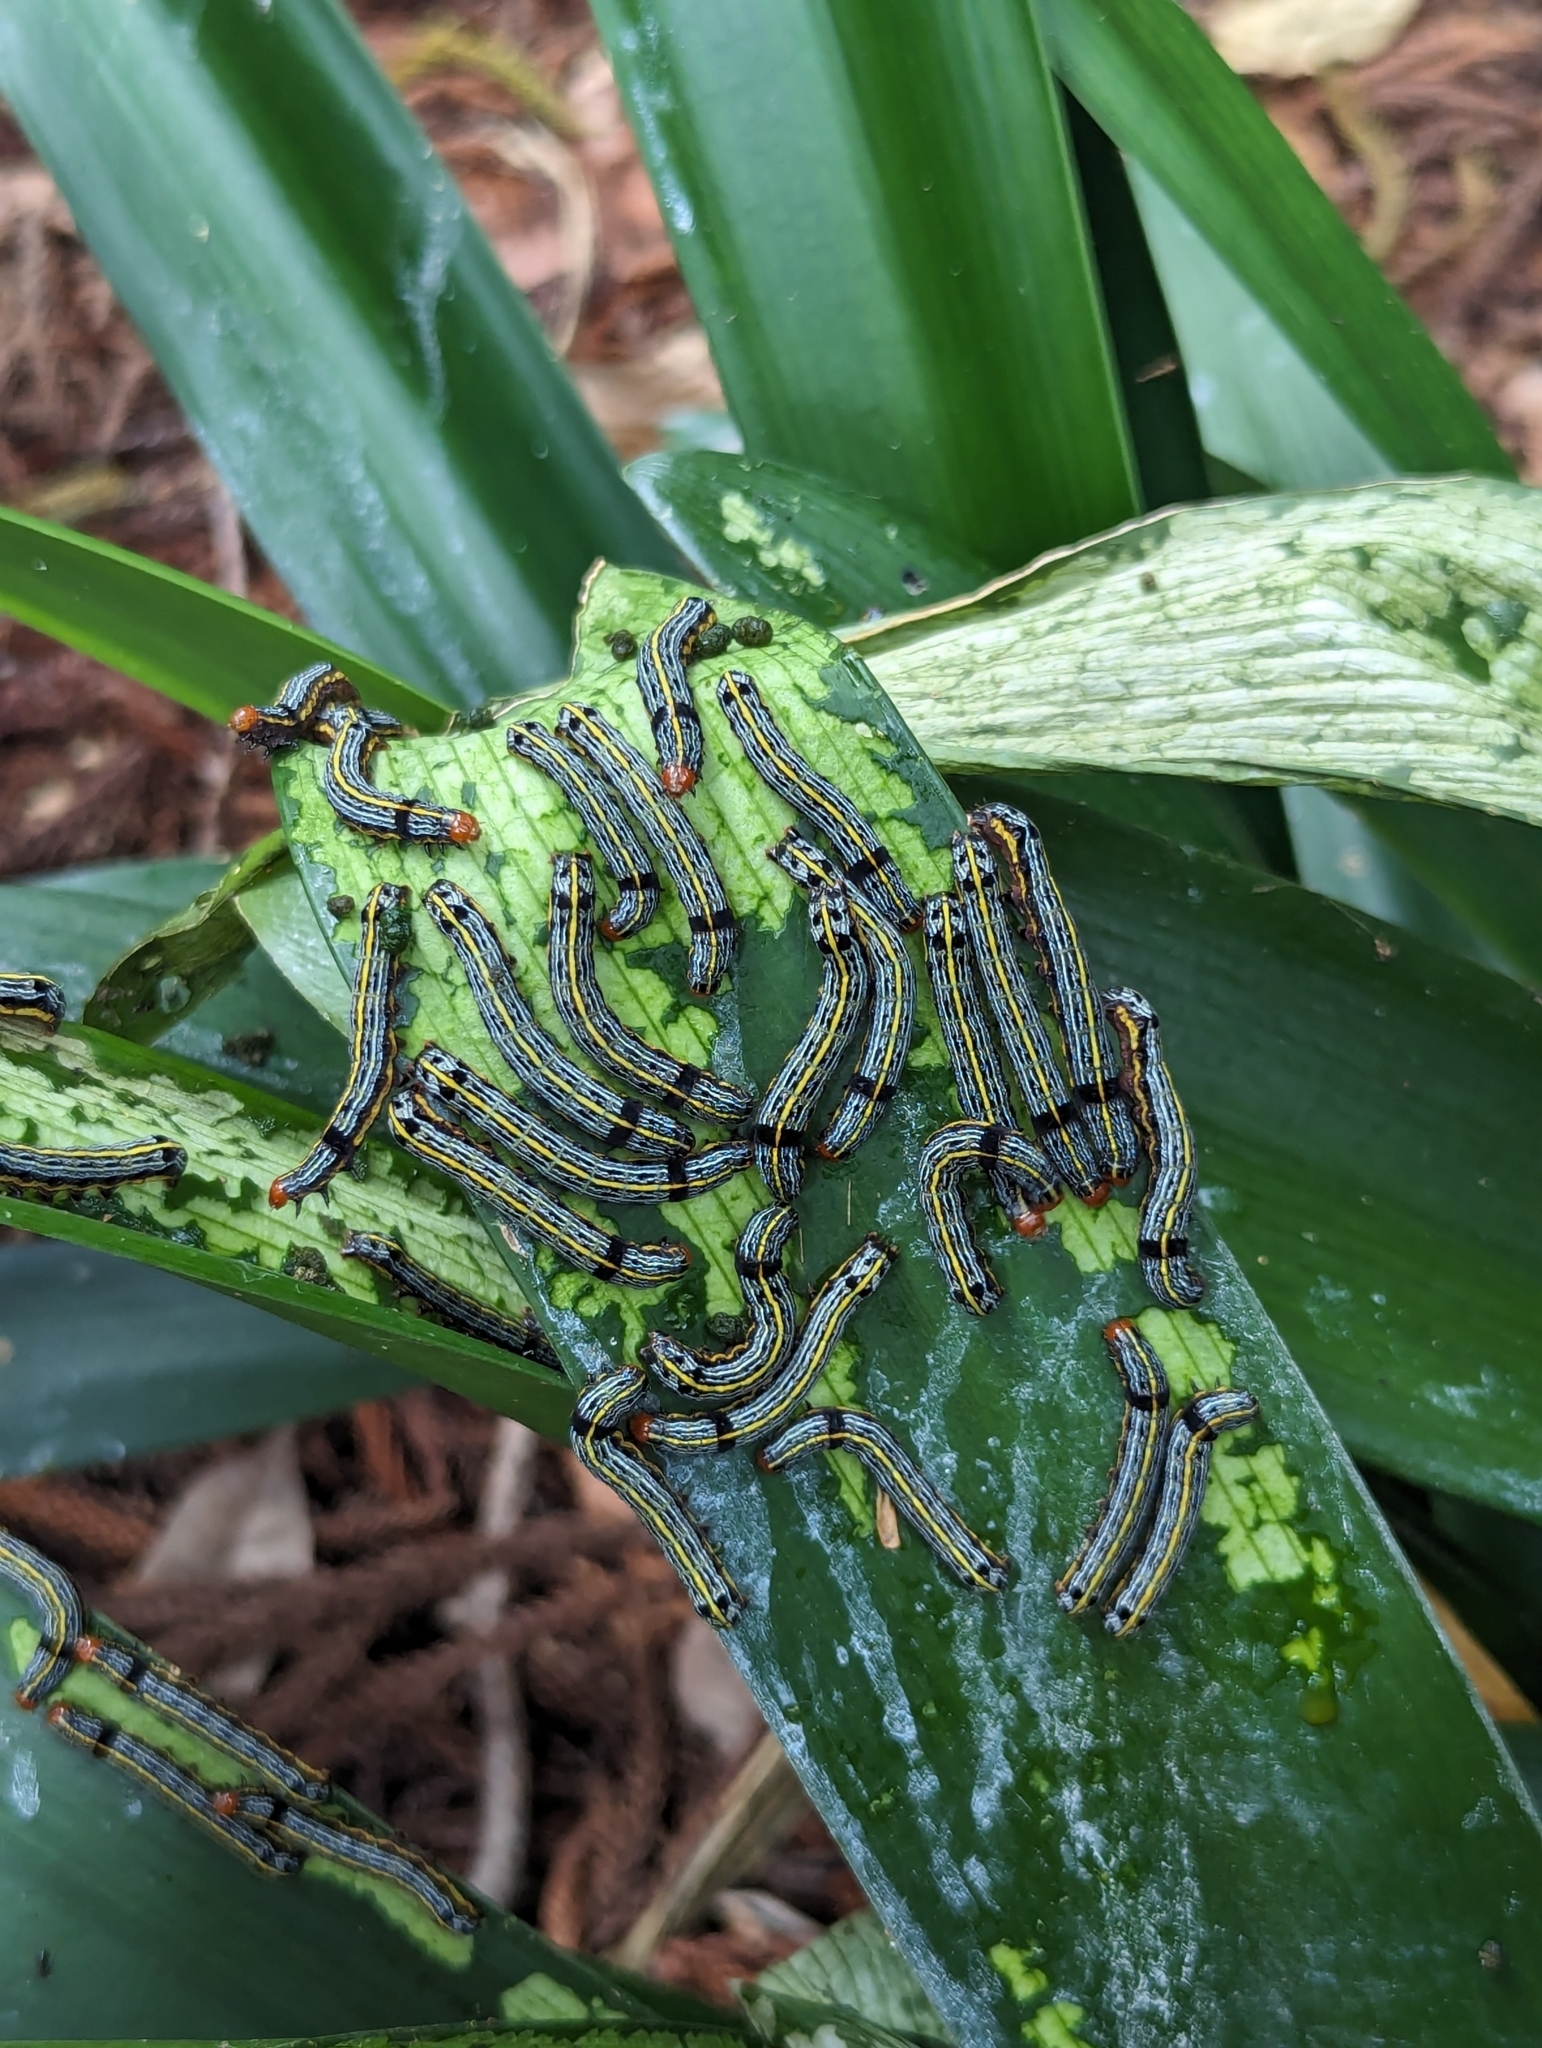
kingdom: Animalia
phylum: Arthropoda
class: Insecta
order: Lepidoptera
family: Noctuidae
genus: Spodoptera
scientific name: Spodoptera picta
